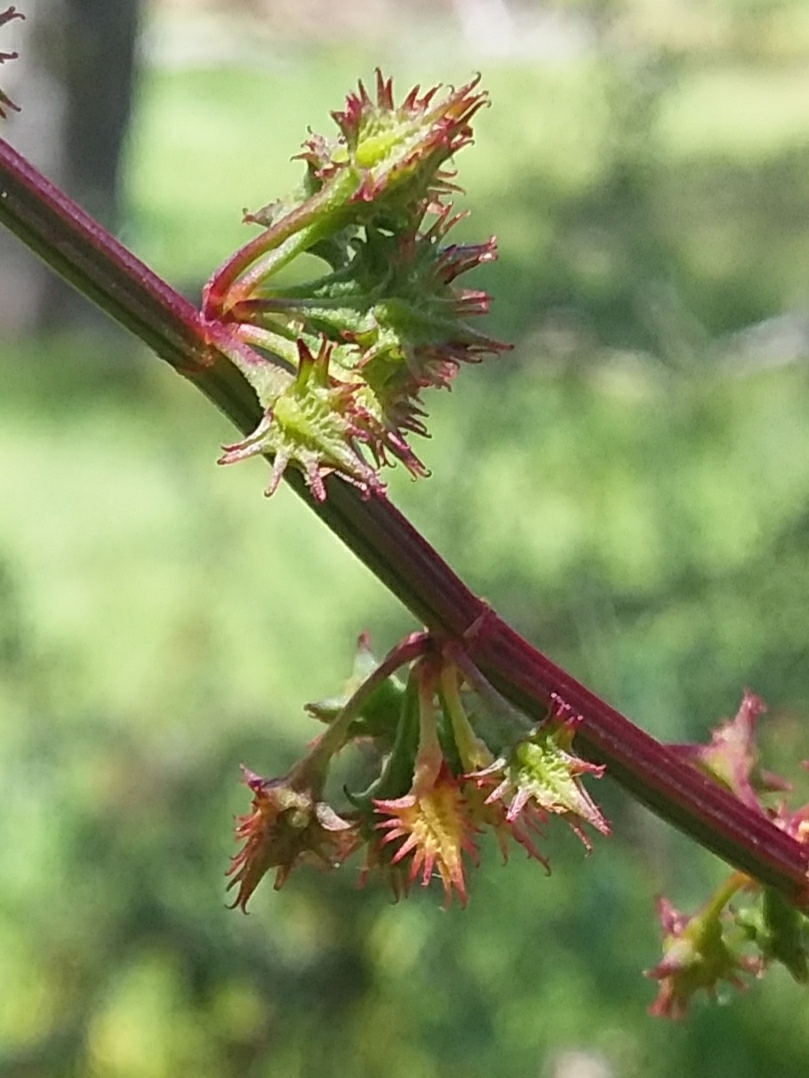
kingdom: Plantae
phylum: Tracheophyta
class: Magnoliopsida
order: Caryophyllales
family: Polygonaceae
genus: Rumex
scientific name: Rumex brownii
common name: Hooked dock
